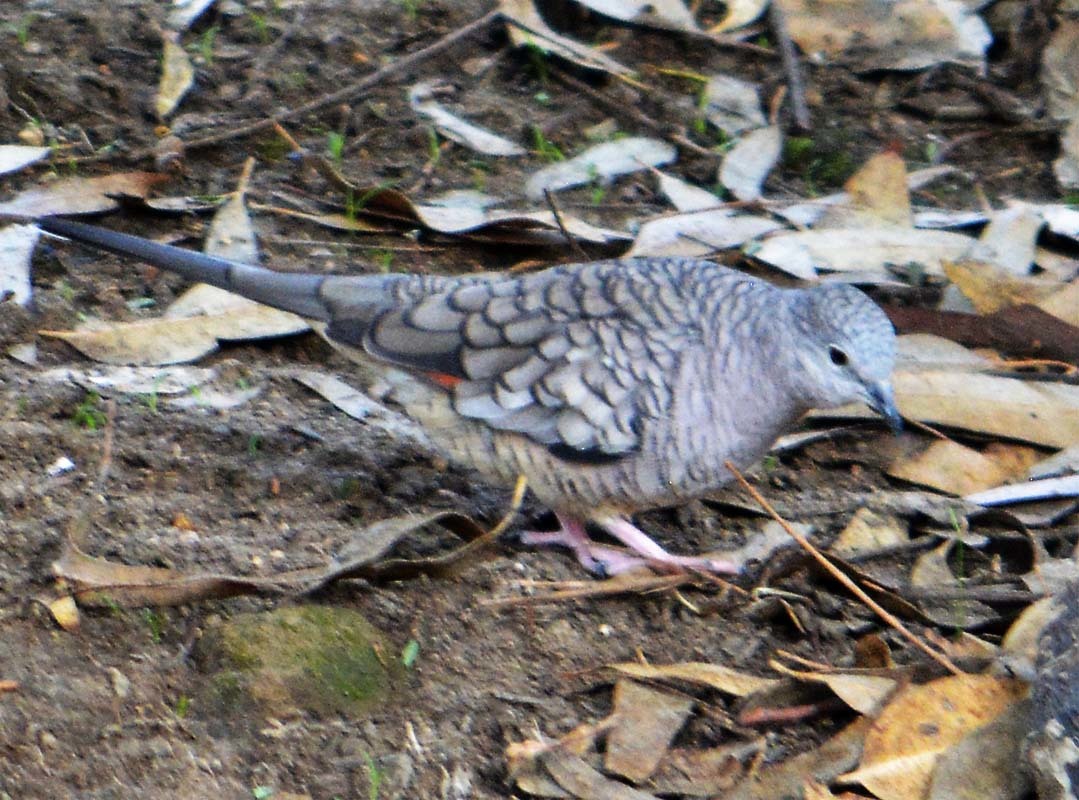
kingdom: Animalia
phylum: Chordata
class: Aves
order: Columbiformes
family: Columbidae
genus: Columbina
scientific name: Columbina inca
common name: Inca dove
